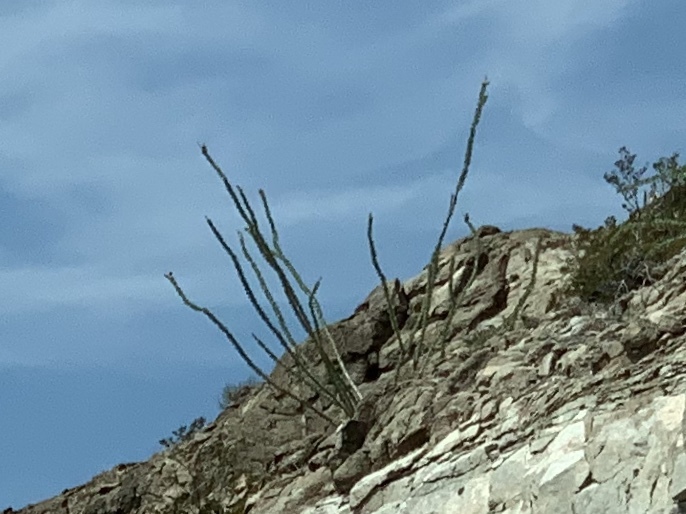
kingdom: Plantae
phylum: Tracheophyta
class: Magnoliopsida
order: Ericales
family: Fouquieriaceae
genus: Fouquieria
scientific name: Fouquieria splendens
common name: Vine-cactus
